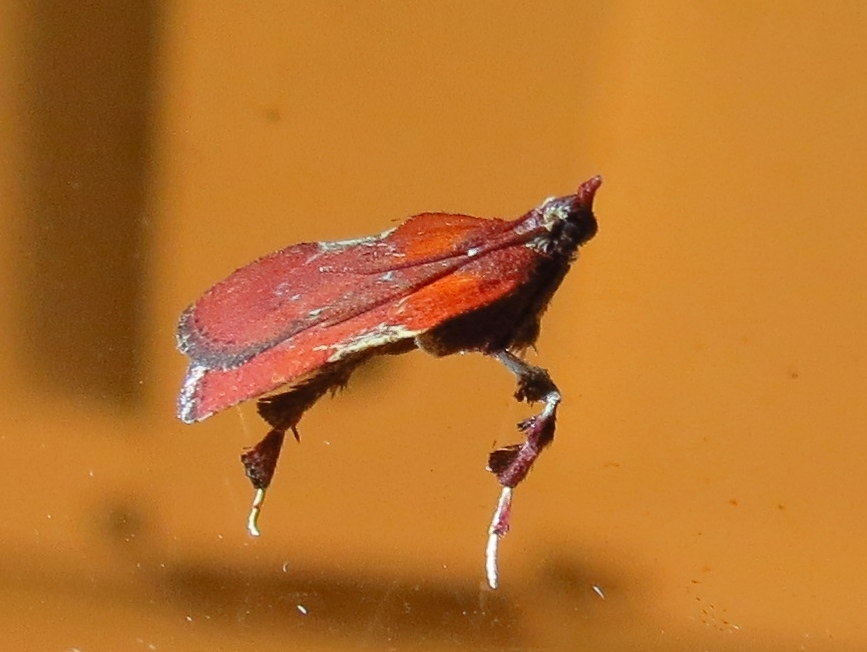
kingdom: Animalia
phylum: Arthropoda
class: Insecta
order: Lepidoptera
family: Pyralidae
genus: Galasa
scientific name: Galasa nigrinodis
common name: Boxwood leaftier moth
